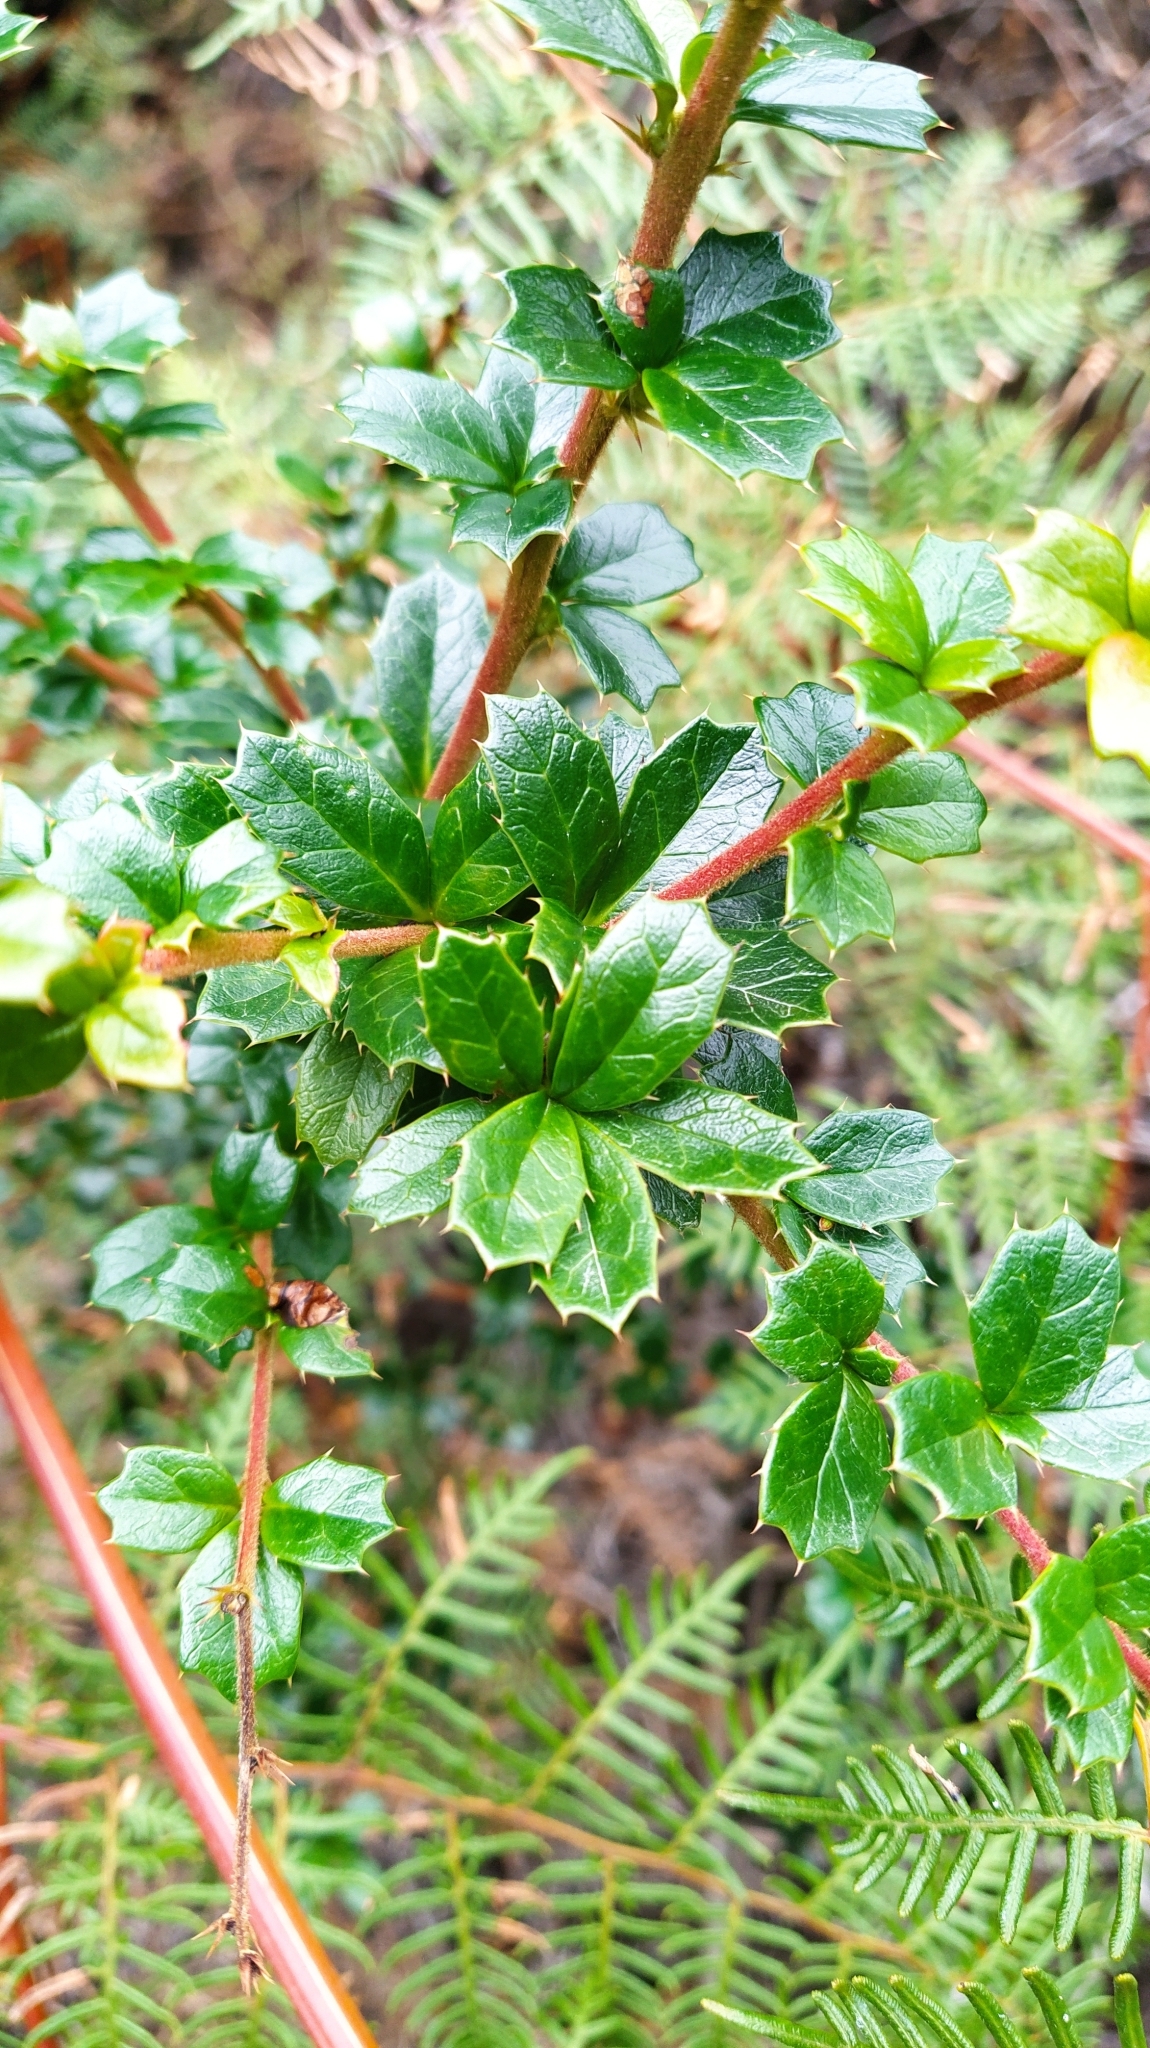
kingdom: Plantae
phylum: Tracheophyta
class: Magnoliopsida
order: Ranunculales
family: Berberidaceae
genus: Berberis
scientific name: Berberis darwinii
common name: Darwin's barberry
